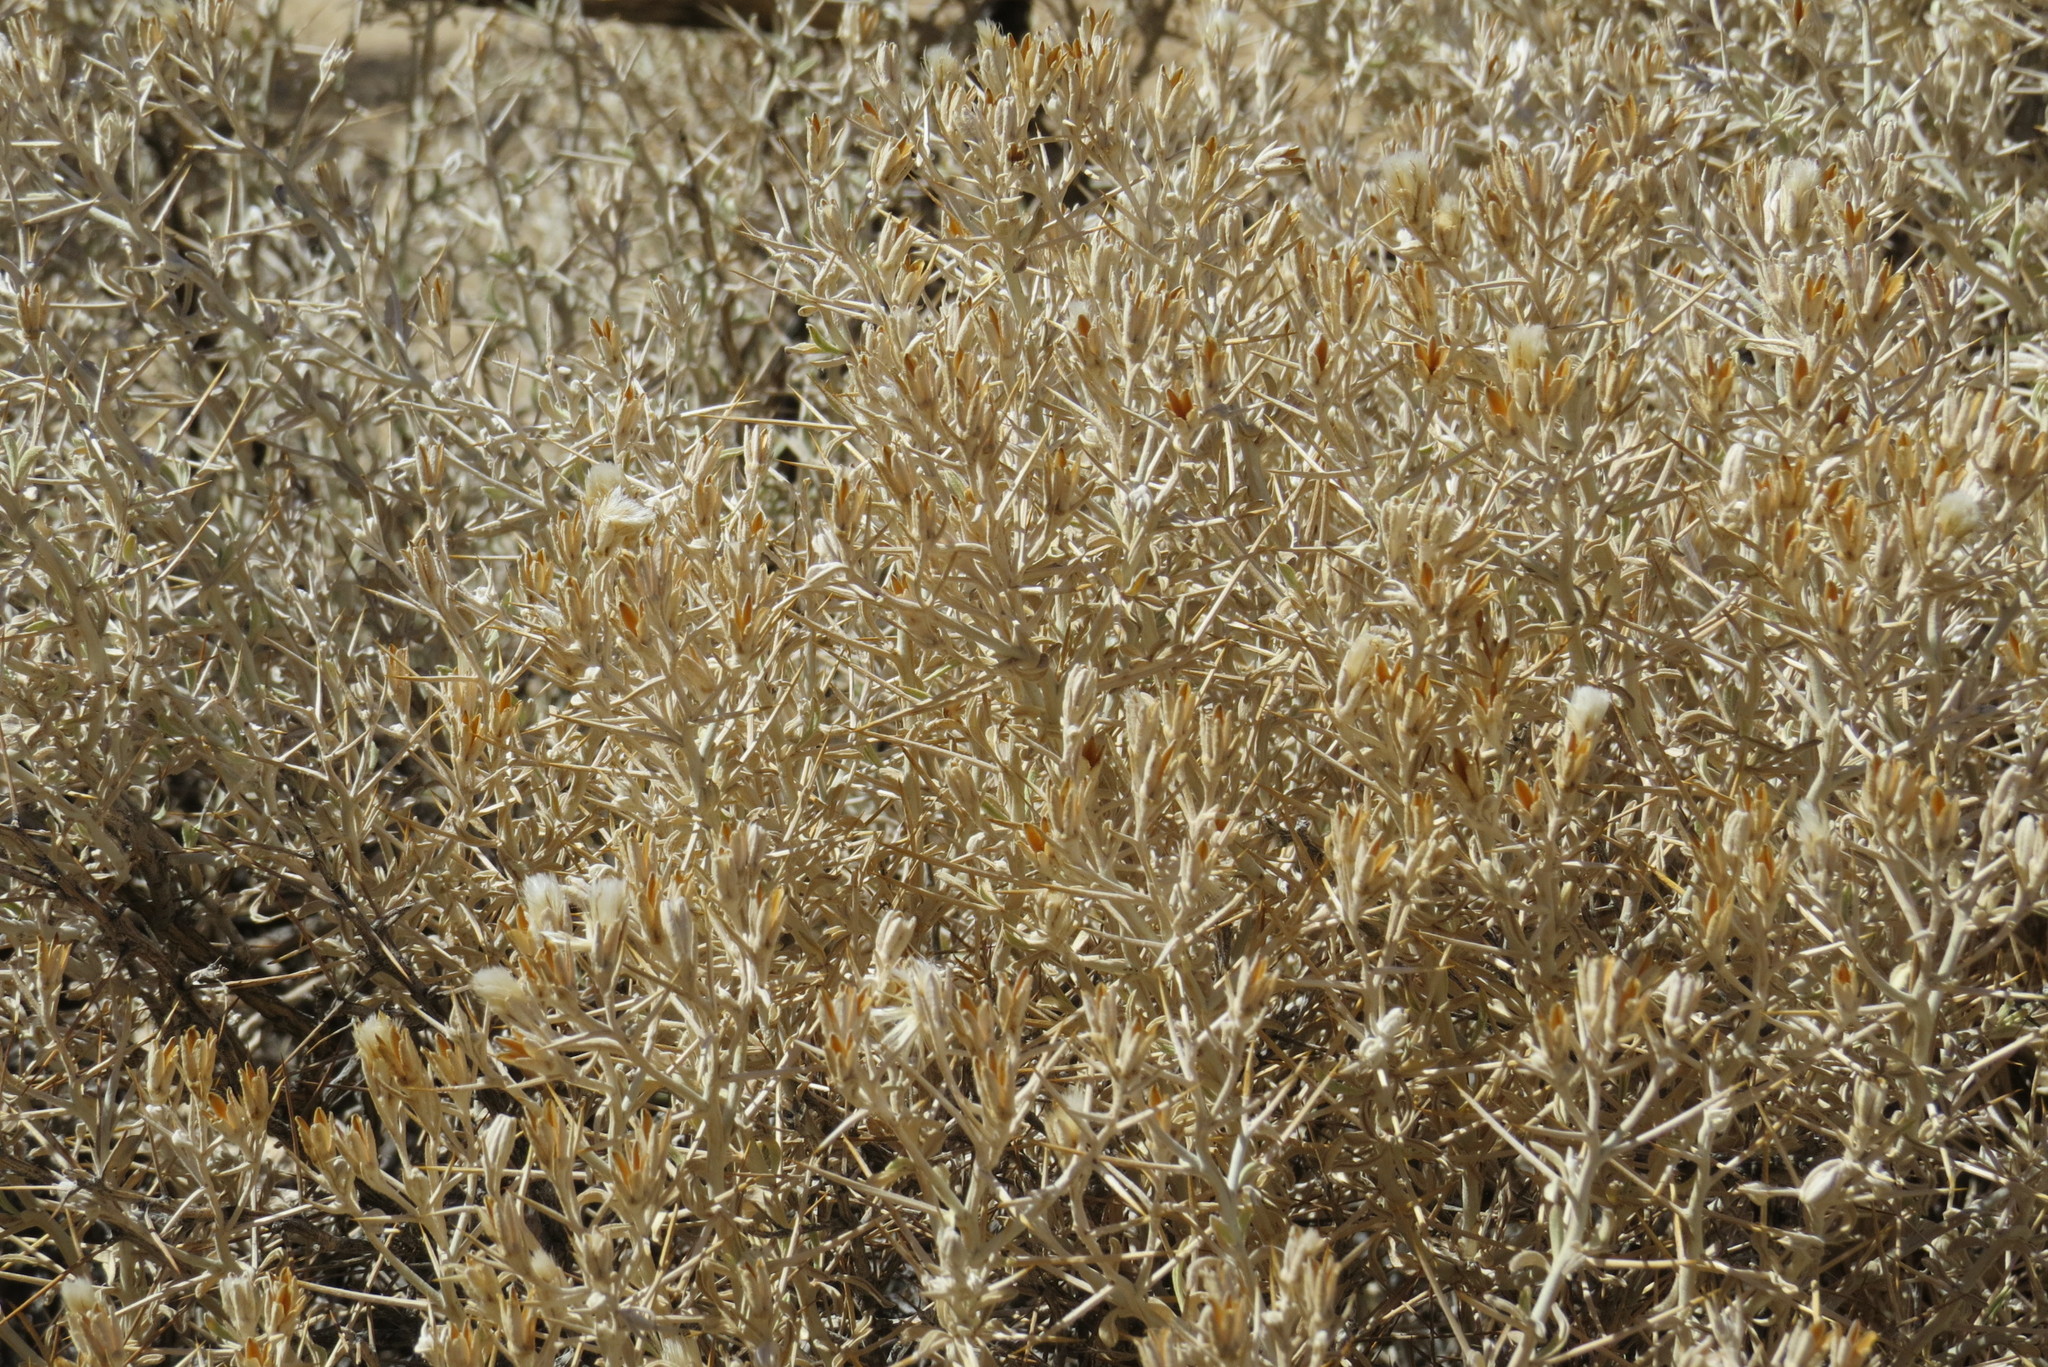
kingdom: Plantae
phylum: Tracheophyta
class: Magnoliopsida
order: Asterales
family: Asteraceae
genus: Tetradymia
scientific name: Tetradymia stenolepis
